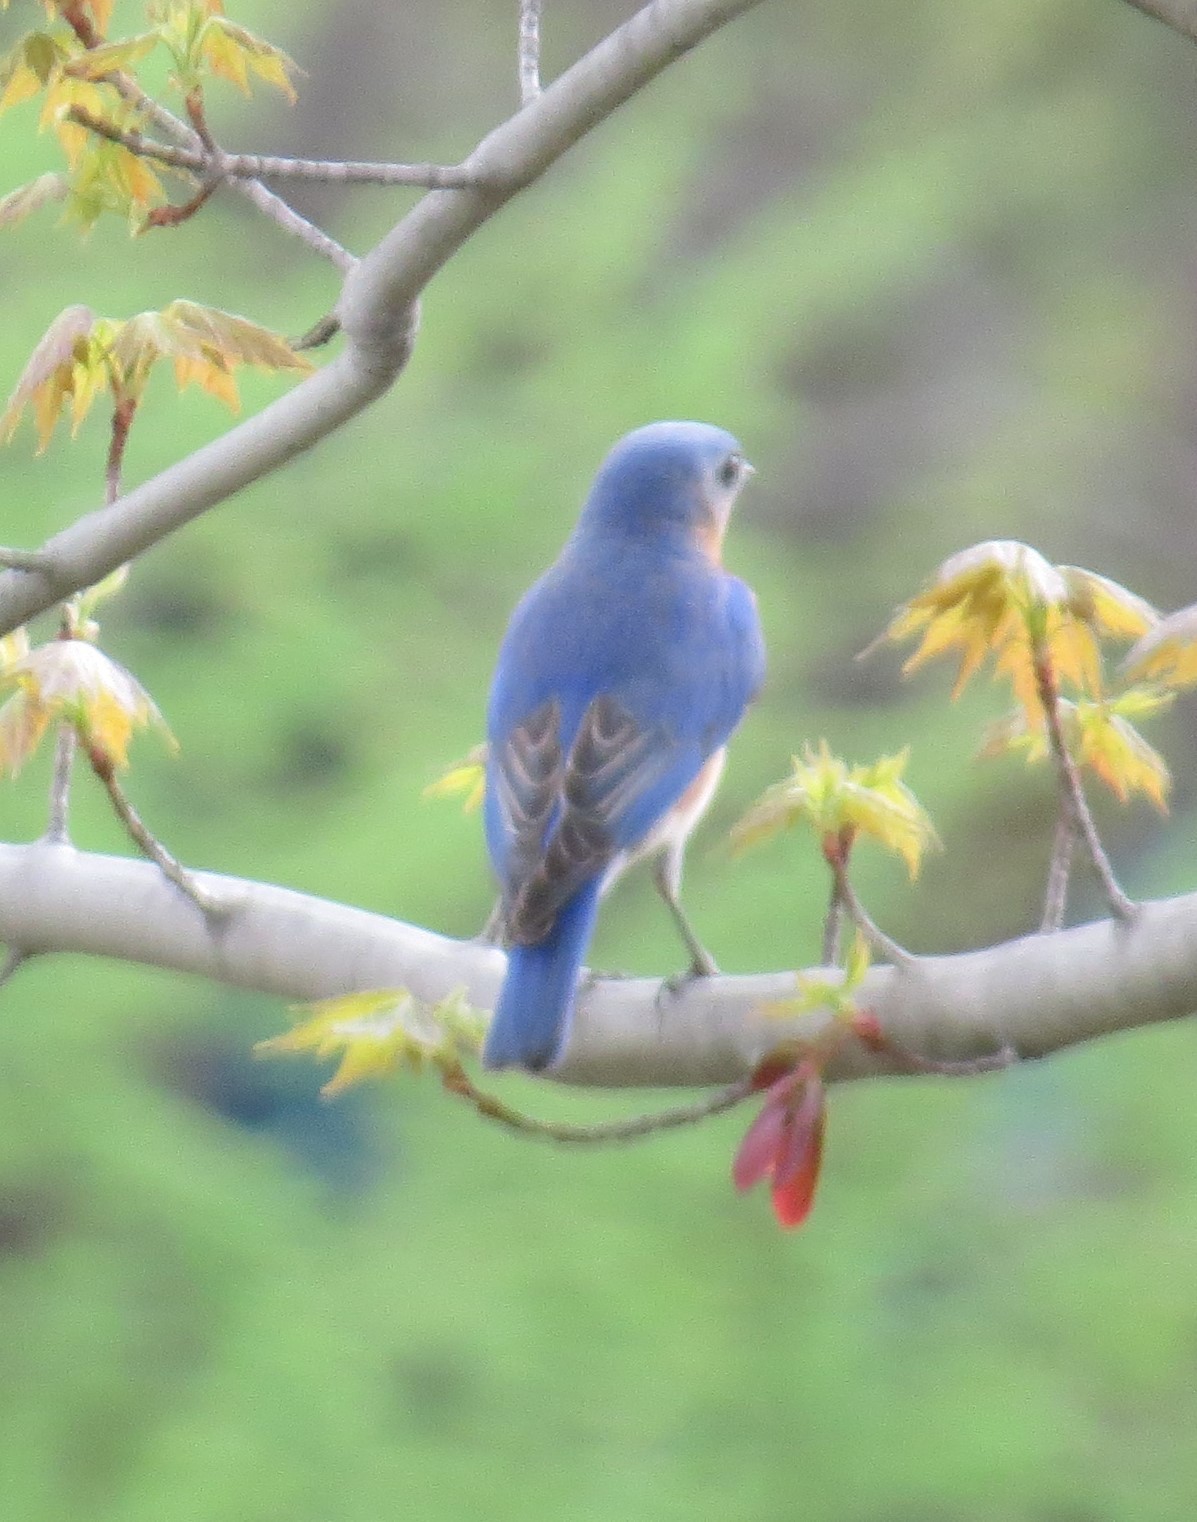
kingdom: Animalia
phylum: Chordata
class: Aves
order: Passeriformes
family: Turdidae
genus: Sialia
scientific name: Sialia sialis
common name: Eastern bluebird
